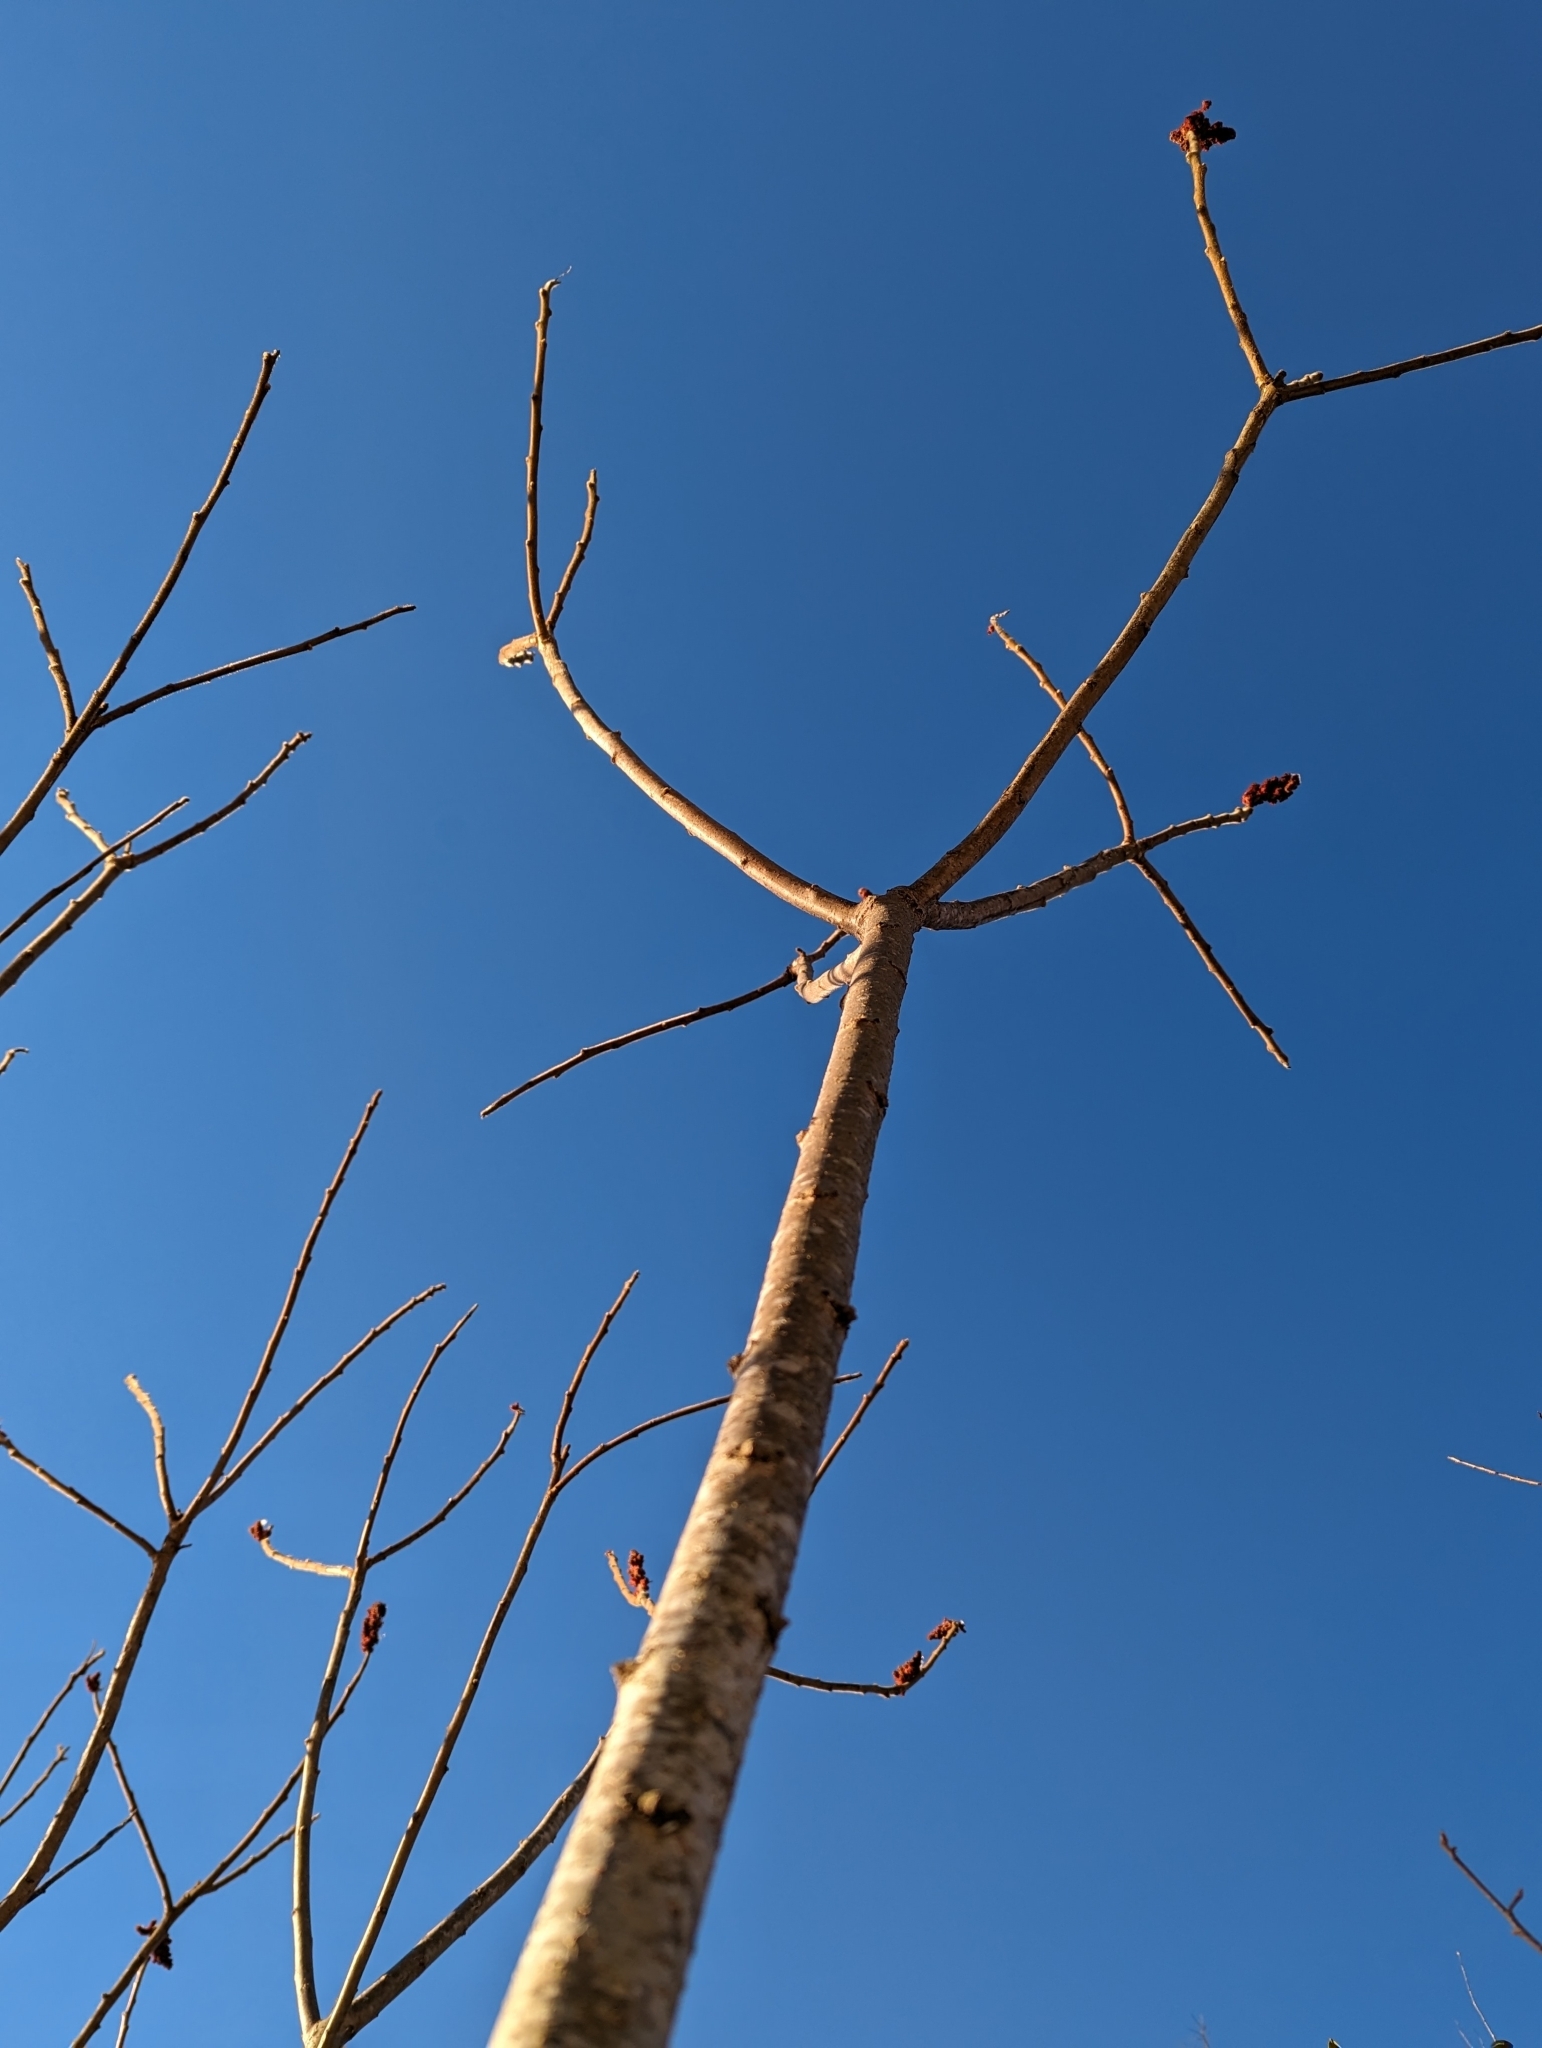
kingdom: Plantae
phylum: Tracheophyta
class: Magnoliopsida
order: Sapindales
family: Anacardiaceae
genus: Rhus
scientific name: Rhus typhina
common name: Staghorn sumac
